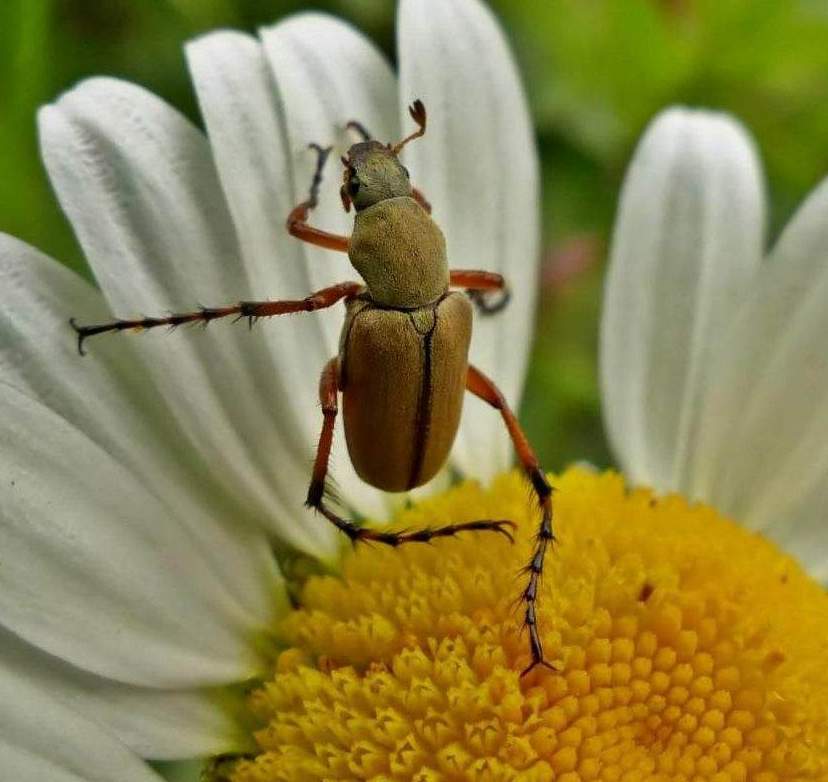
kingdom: Animalia
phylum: Arthropoda
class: Insecta
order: Coleoptera
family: Scarabaeidae
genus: Macrodactylus
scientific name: Macrodactylus subspinosus
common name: American rose chafer
